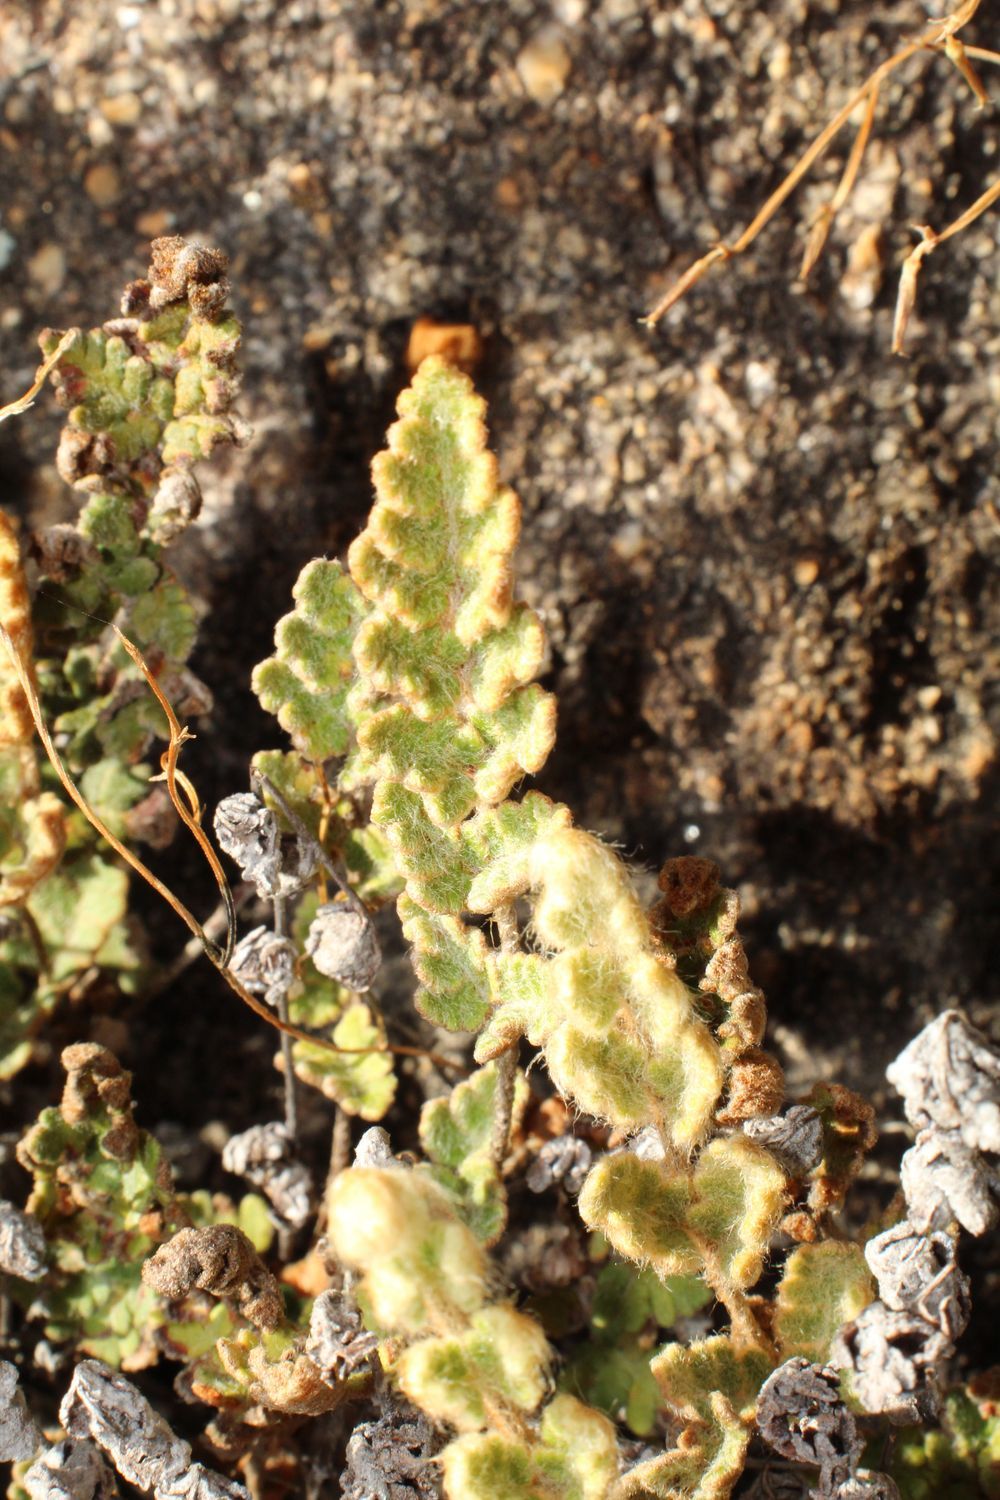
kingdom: Plantae
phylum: Tracheophyta
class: Polypodiopsida
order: Polypodiales
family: Aspleniaceae
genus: Asplenium
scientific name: Asplenium subglandulosum
